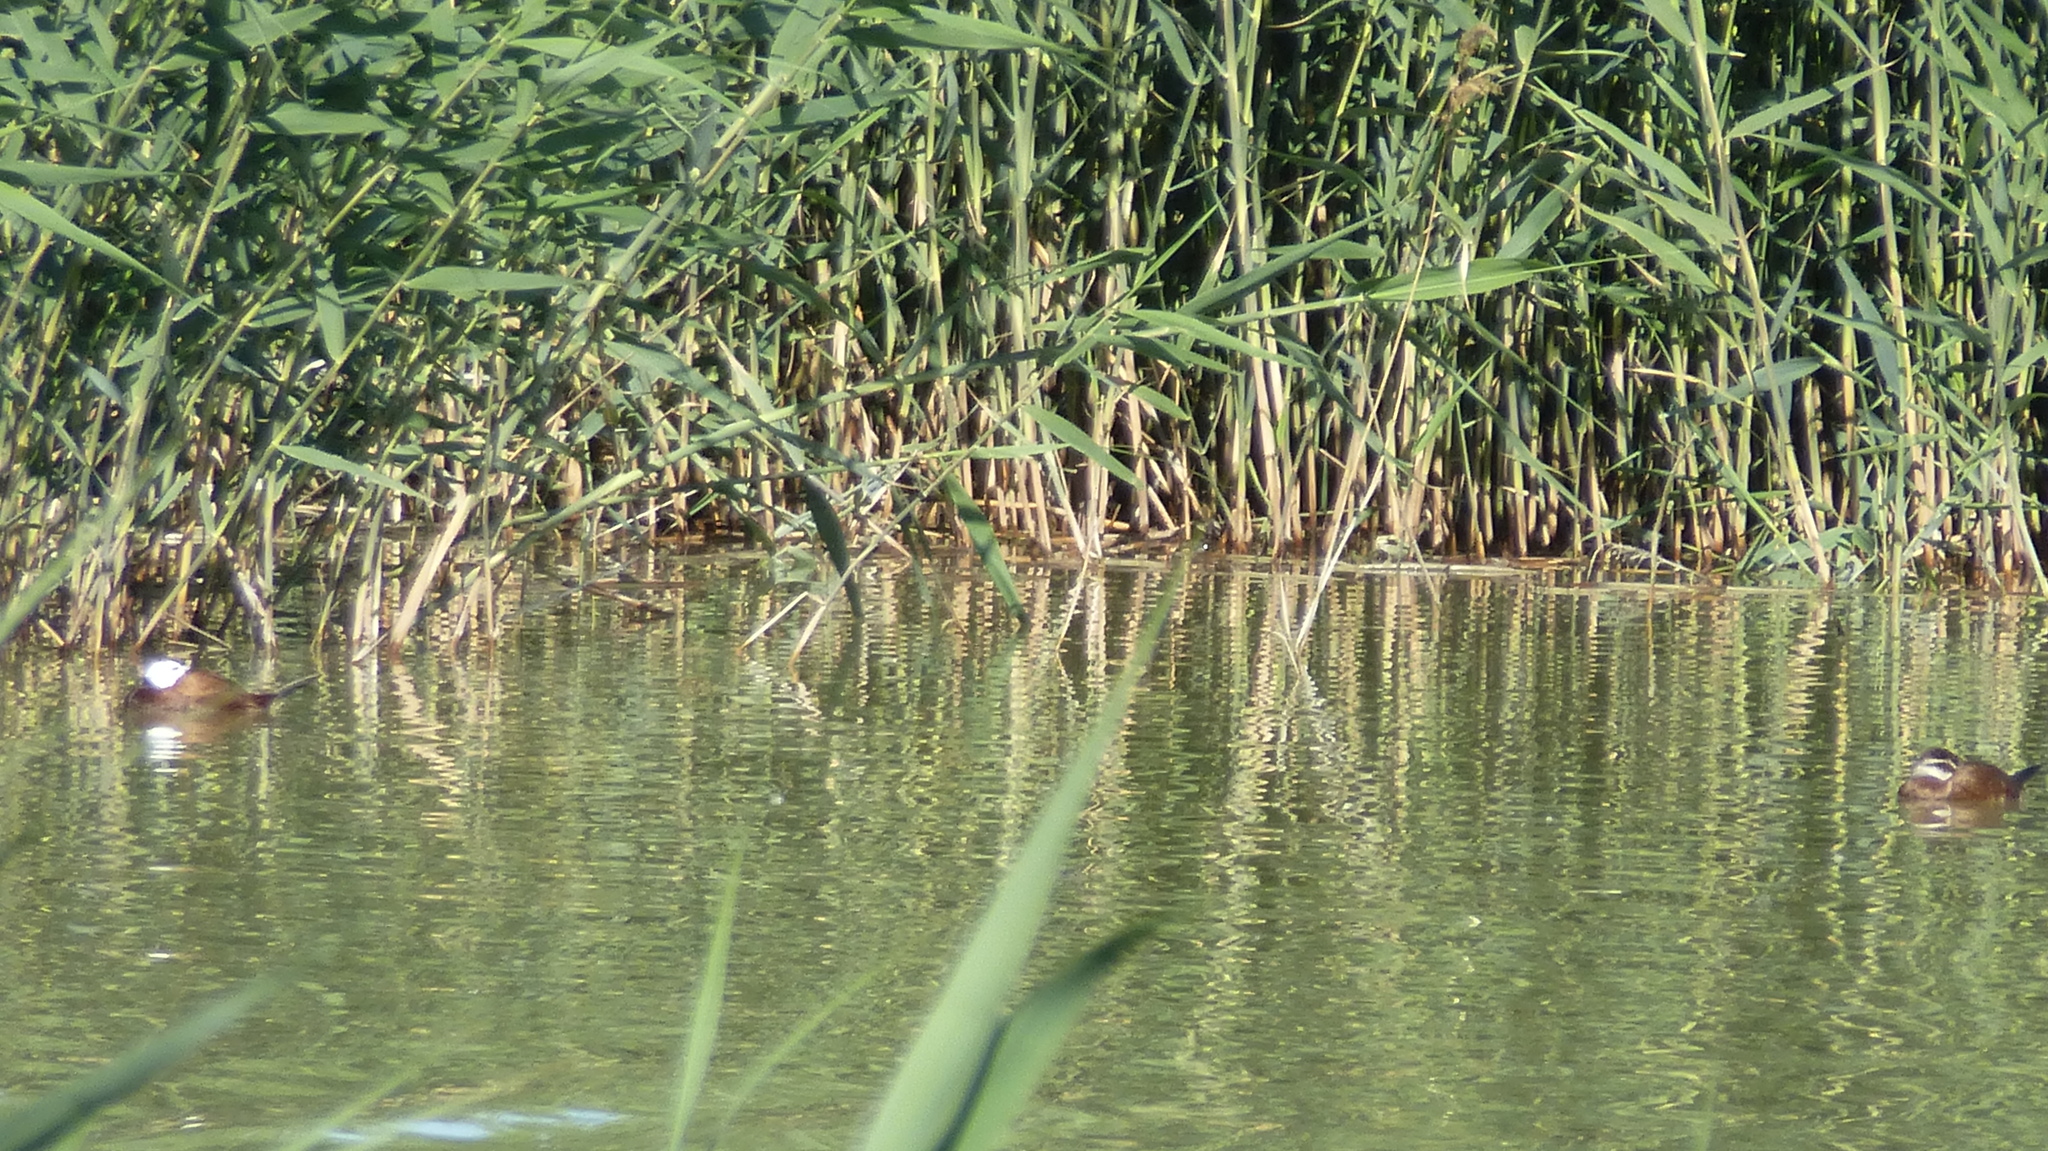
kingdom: Animalia
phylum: Chordata
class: Aves
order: Anseriformes
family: Anatidae
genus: Oxyura
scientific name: Oxyura leucocephala
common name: White-headed duck
